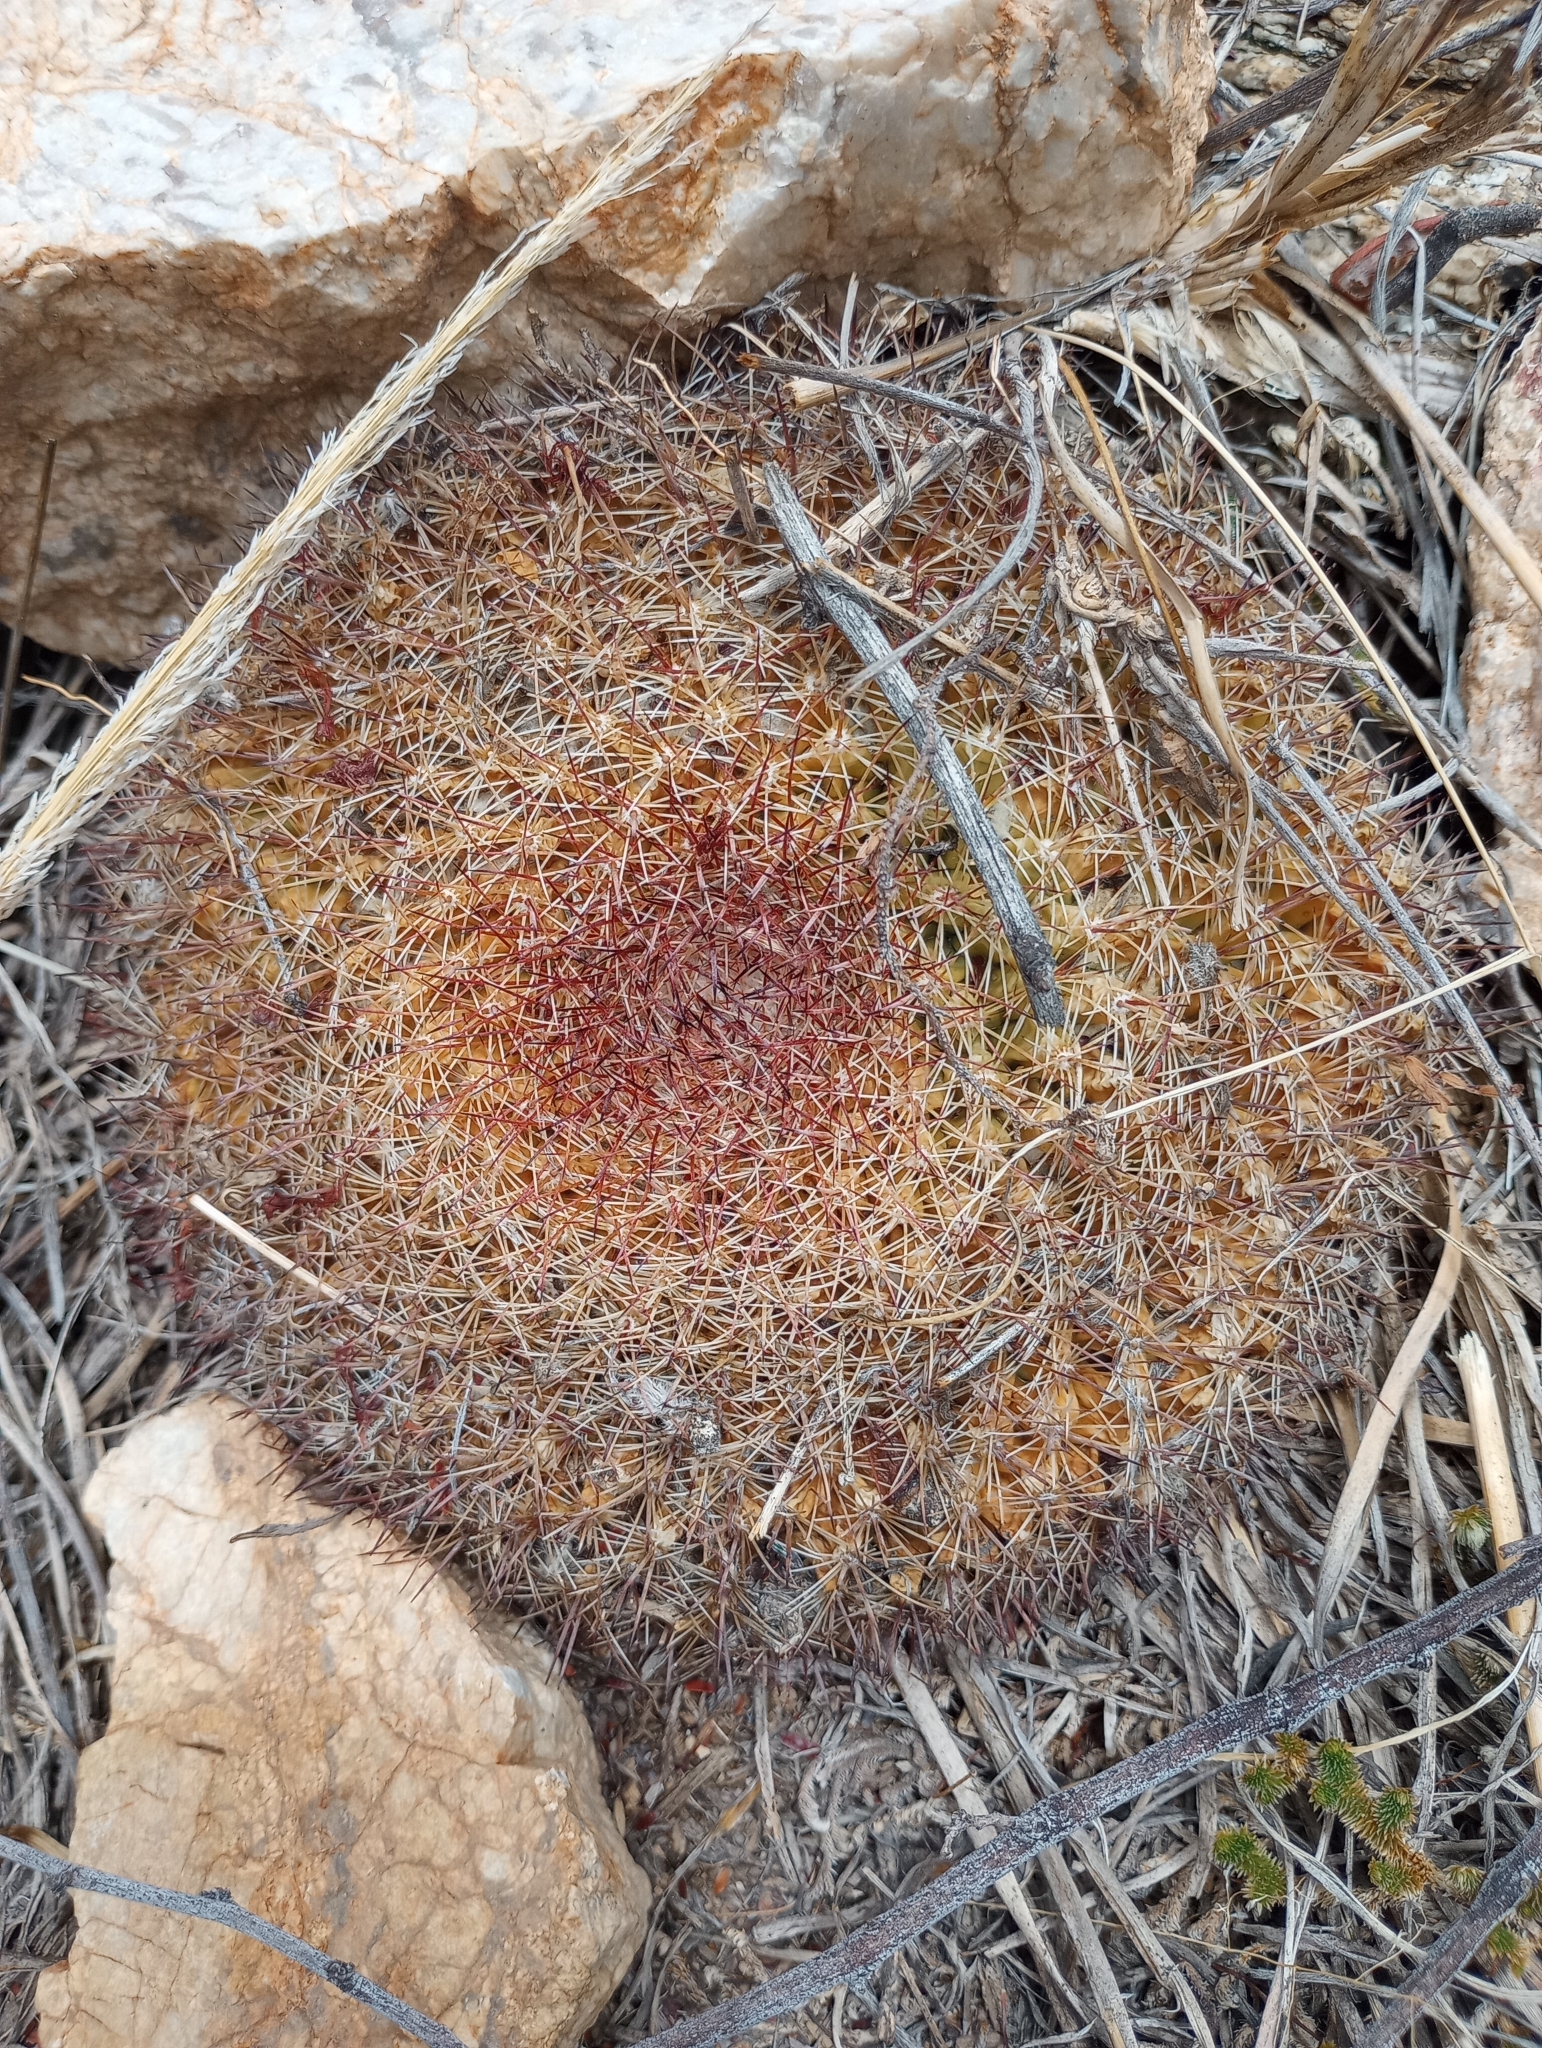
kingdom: Plantae
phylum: Tracheophyta
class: Magnoliopsida
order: Caryophyllales
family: Cactaceae
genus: Mammillaria
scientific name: Mammillaria heyderi
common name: Little nipple cactus
